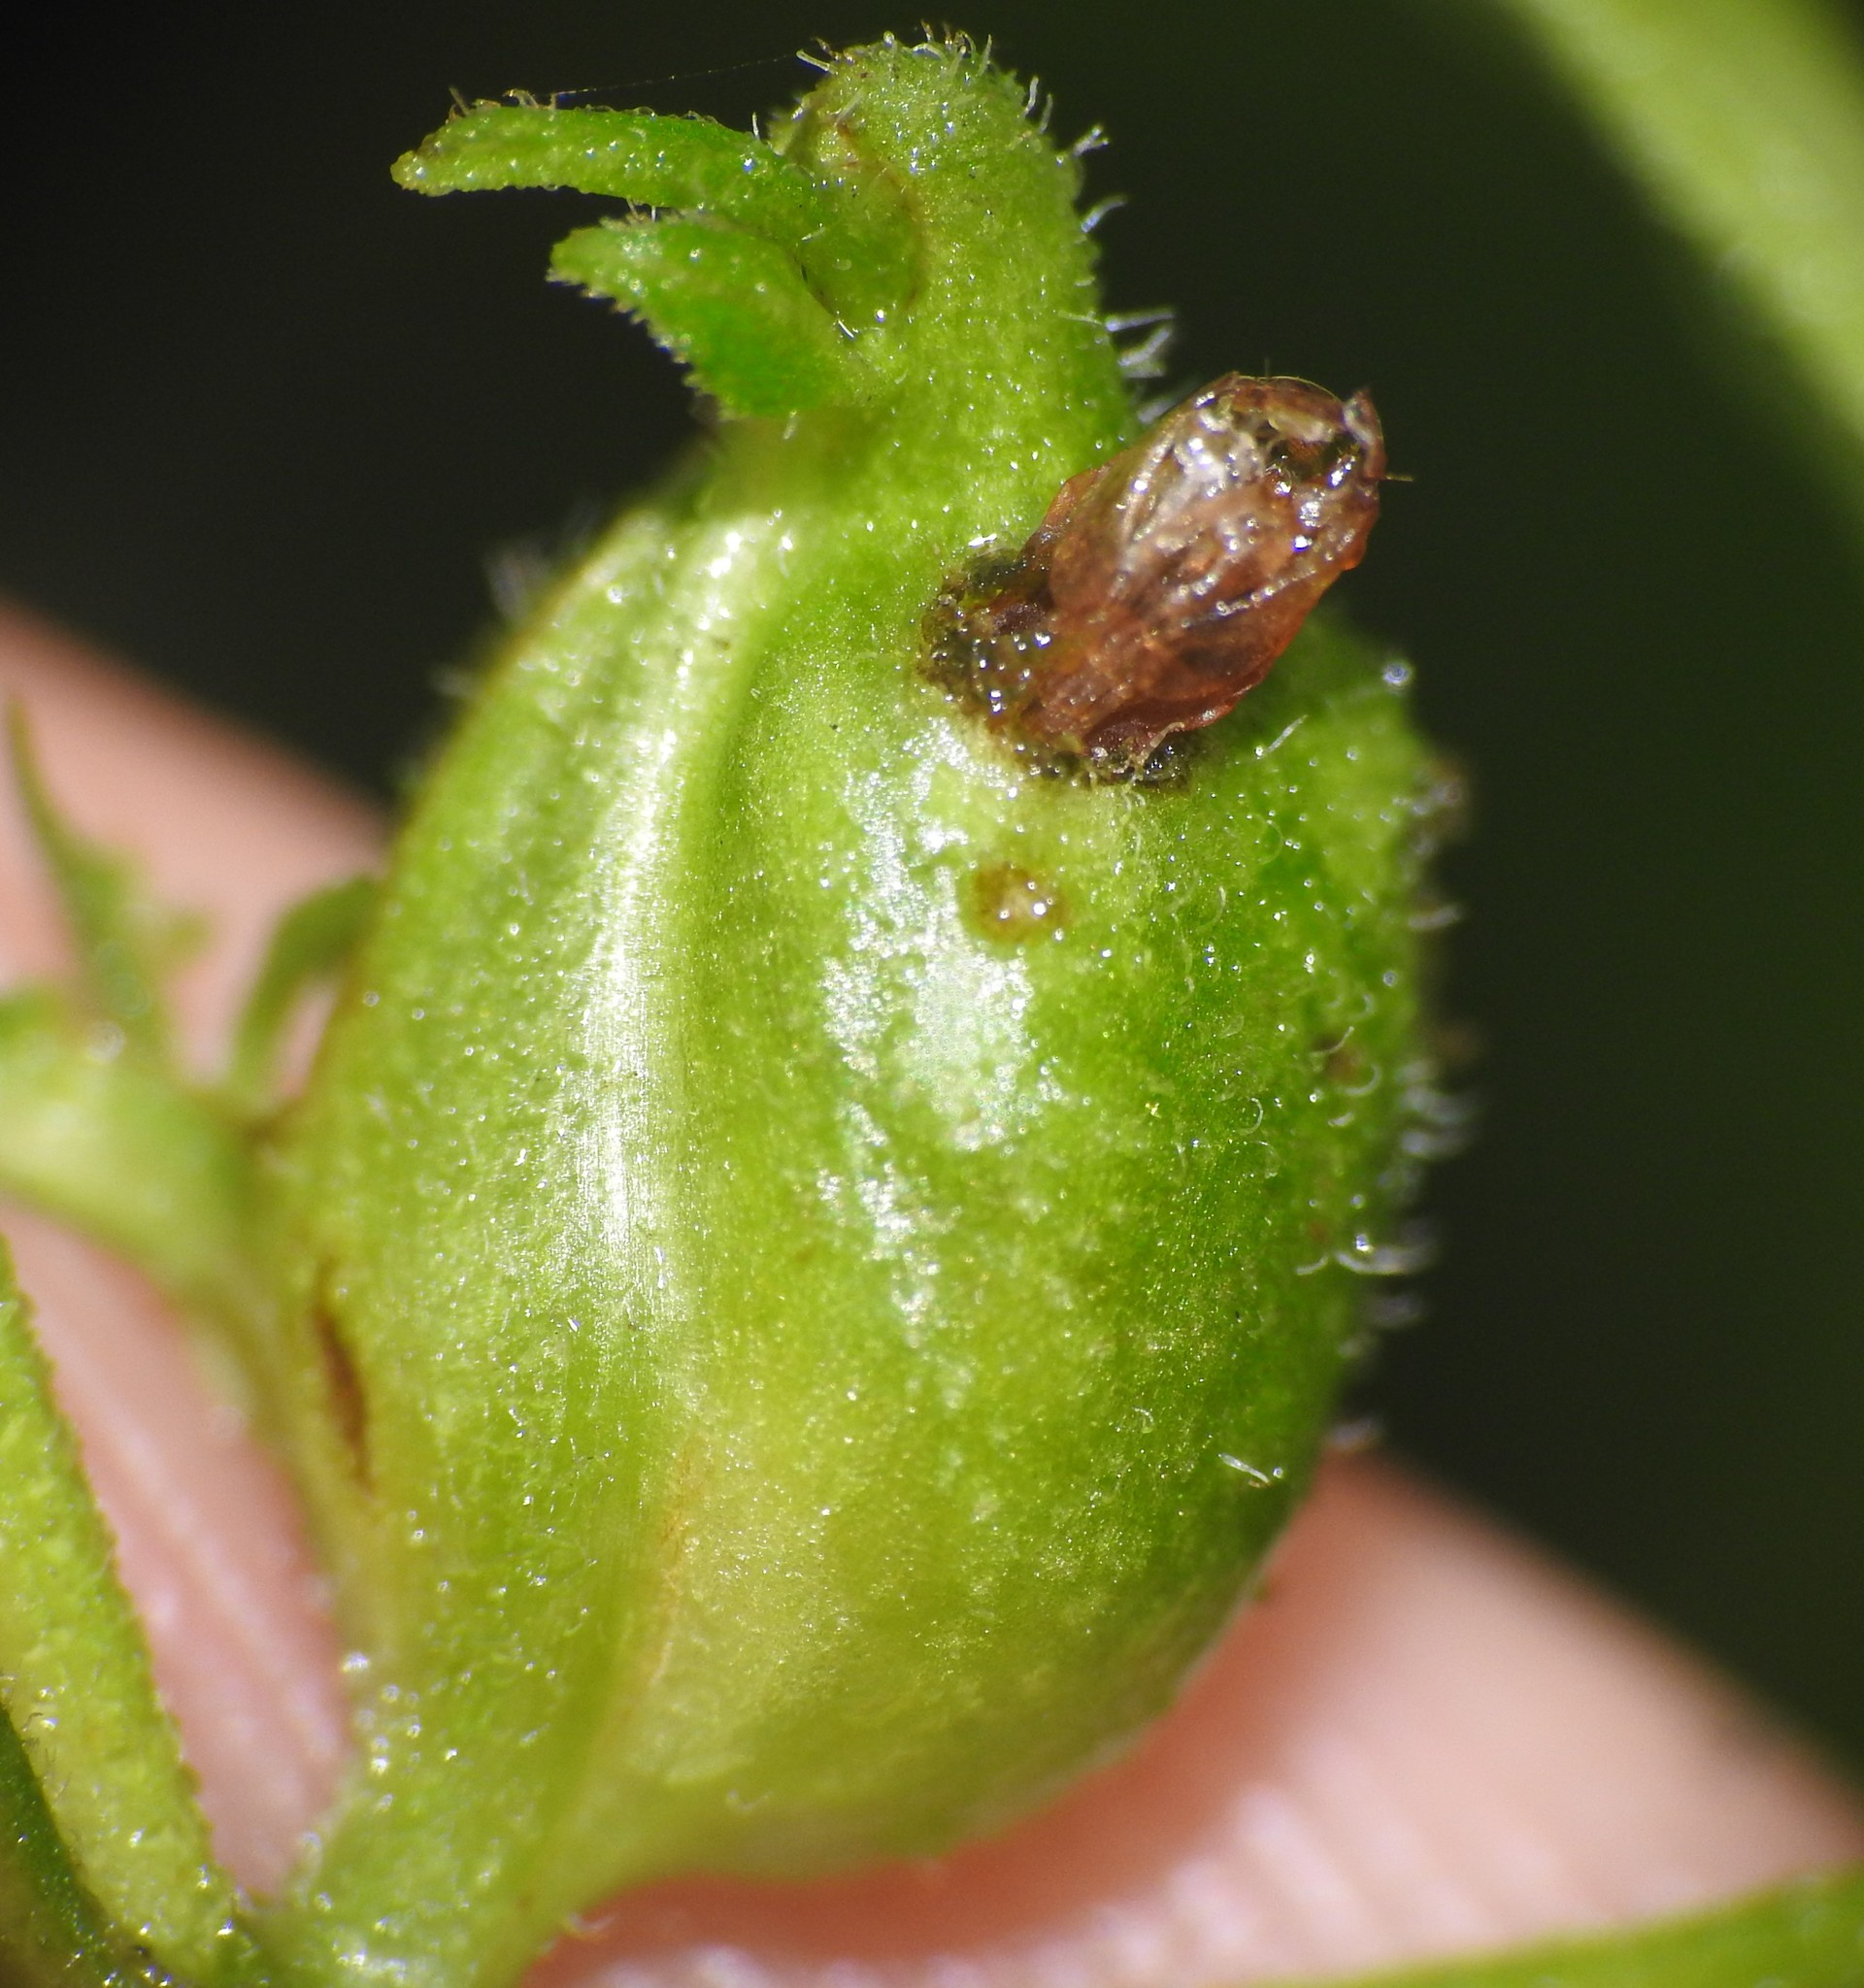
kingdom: Animalia
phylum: Arthropoda
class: Insecta
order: Diptera
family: Cecidomyiidae
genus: Asphondylia
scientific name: Asphondylia eupatorii
